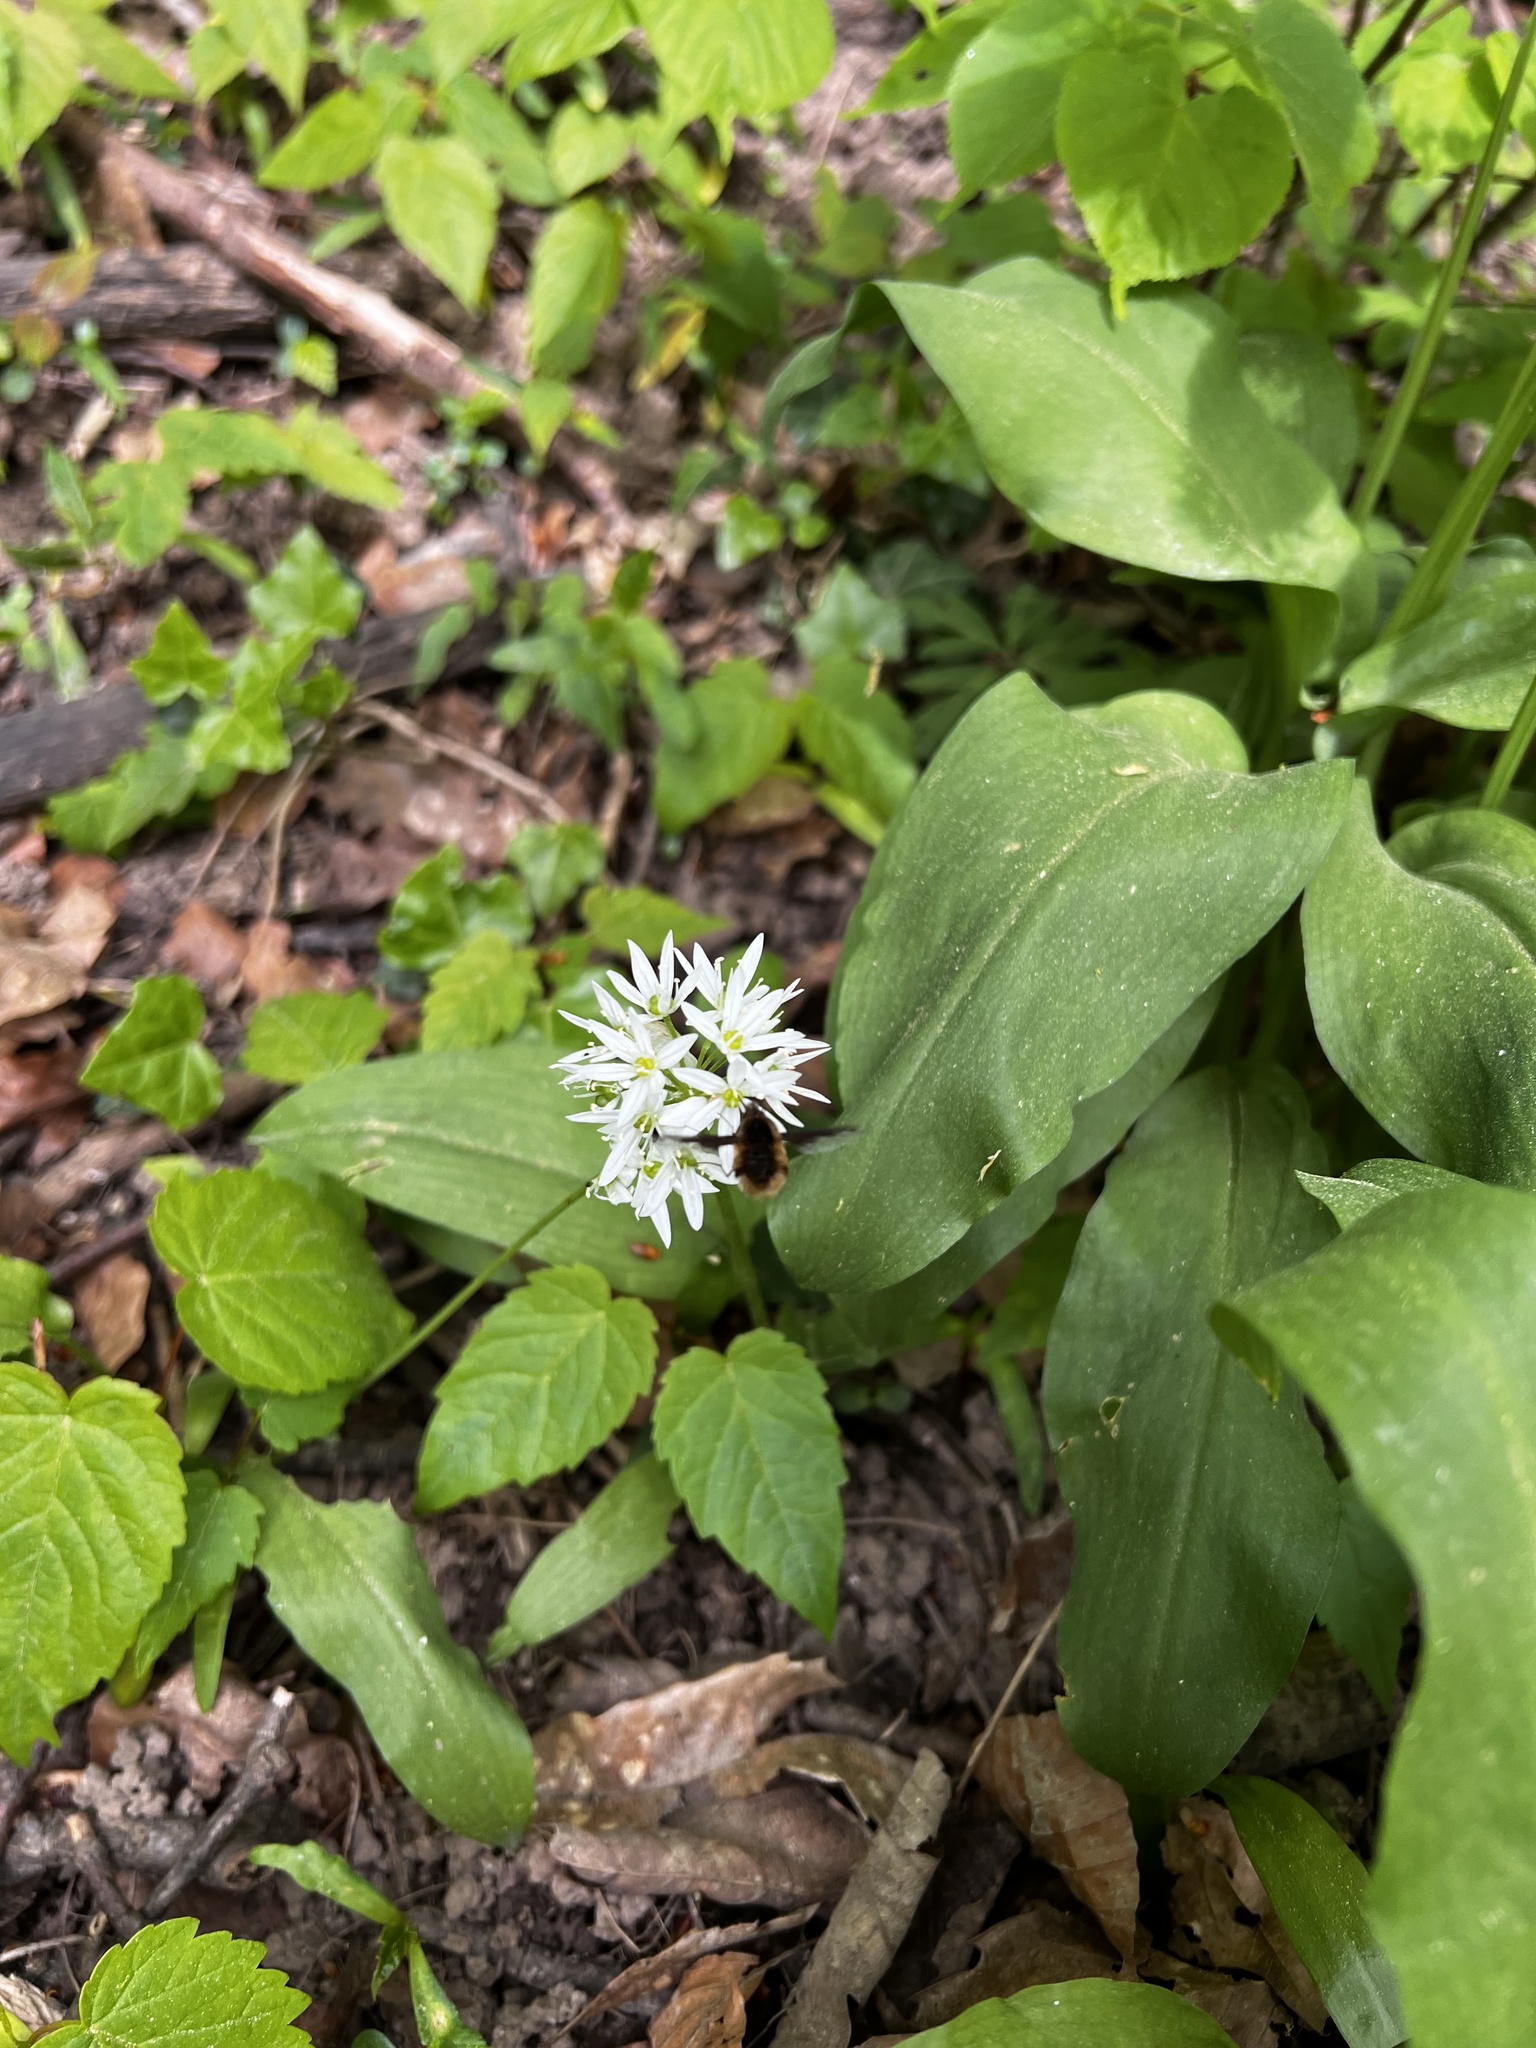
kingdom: Plantae
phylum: Tracheophyta
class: Liliopsida
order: Asparagales
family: Amaryllidaceae
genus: Allium
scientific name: Allium ursinum
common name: Ramsons
